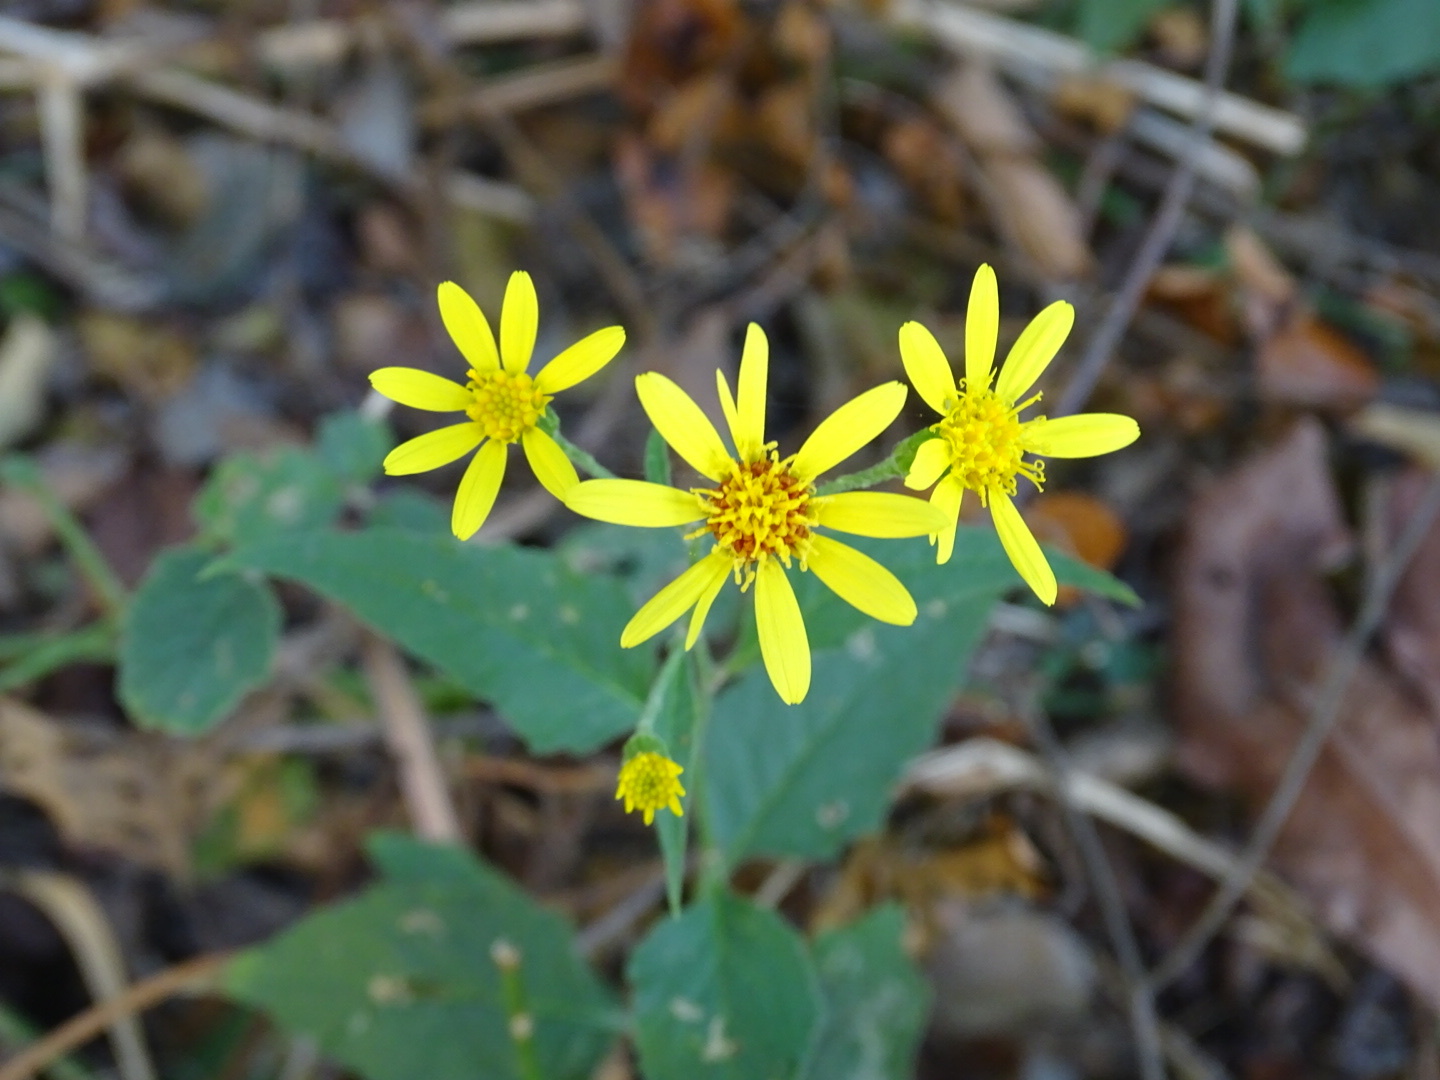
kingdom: Plantae
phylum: Tracheophyta
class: Magnoliopsida
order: Asterales
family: Asteraceae
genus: Senecio
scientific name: Senecio scandens
